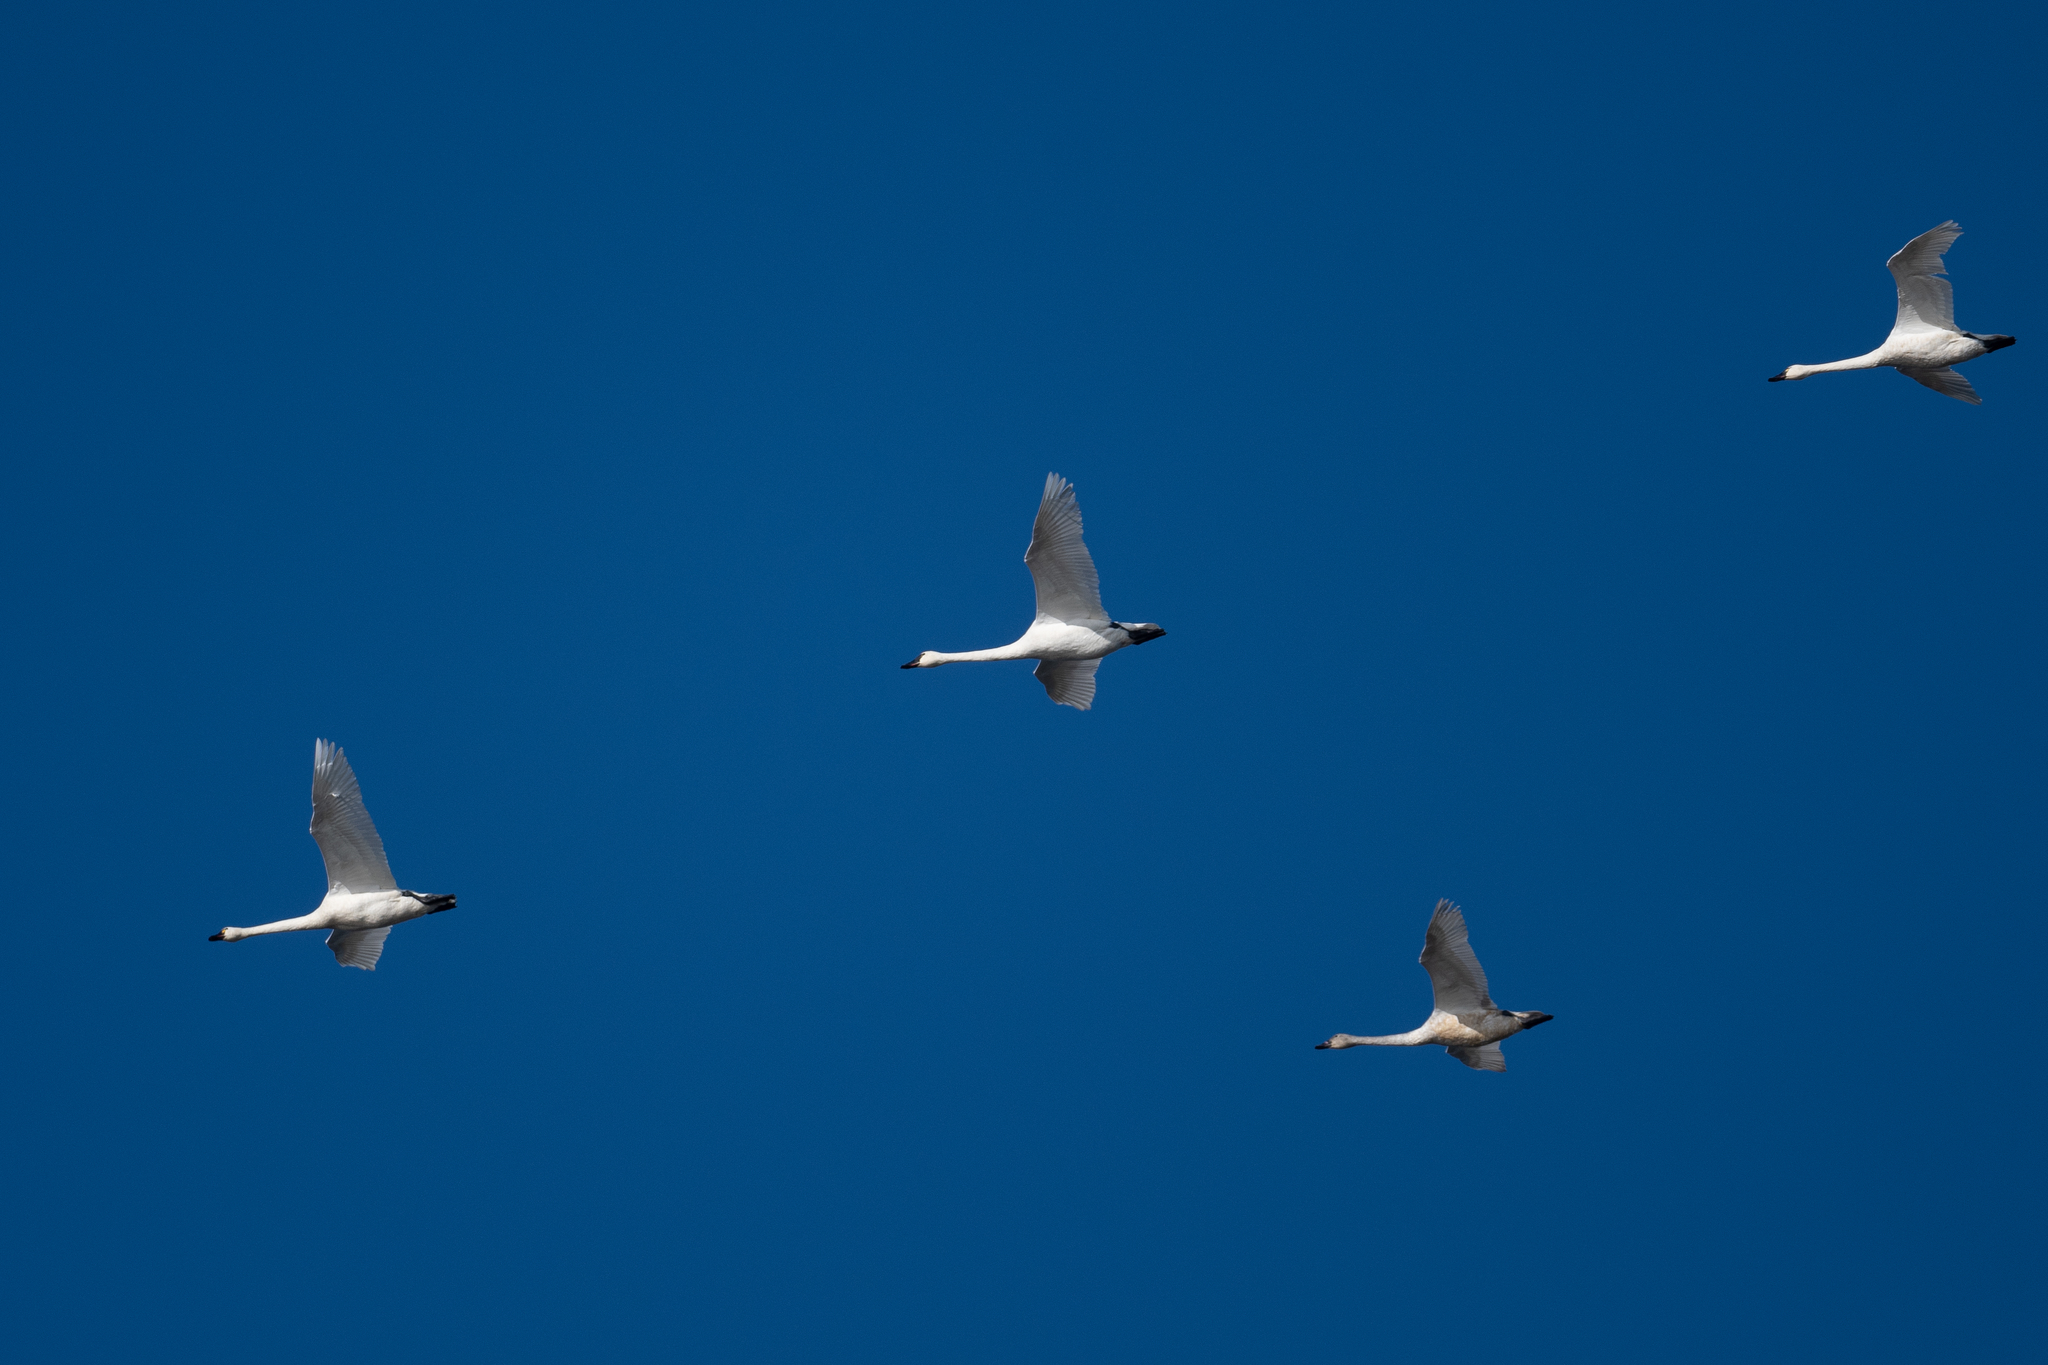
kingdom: Animalia
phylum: Chordata
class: Aves
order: Anseriformes
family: Anatidae
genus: Cygnus
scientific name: Cygnus columbianus
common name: Tundra swan
